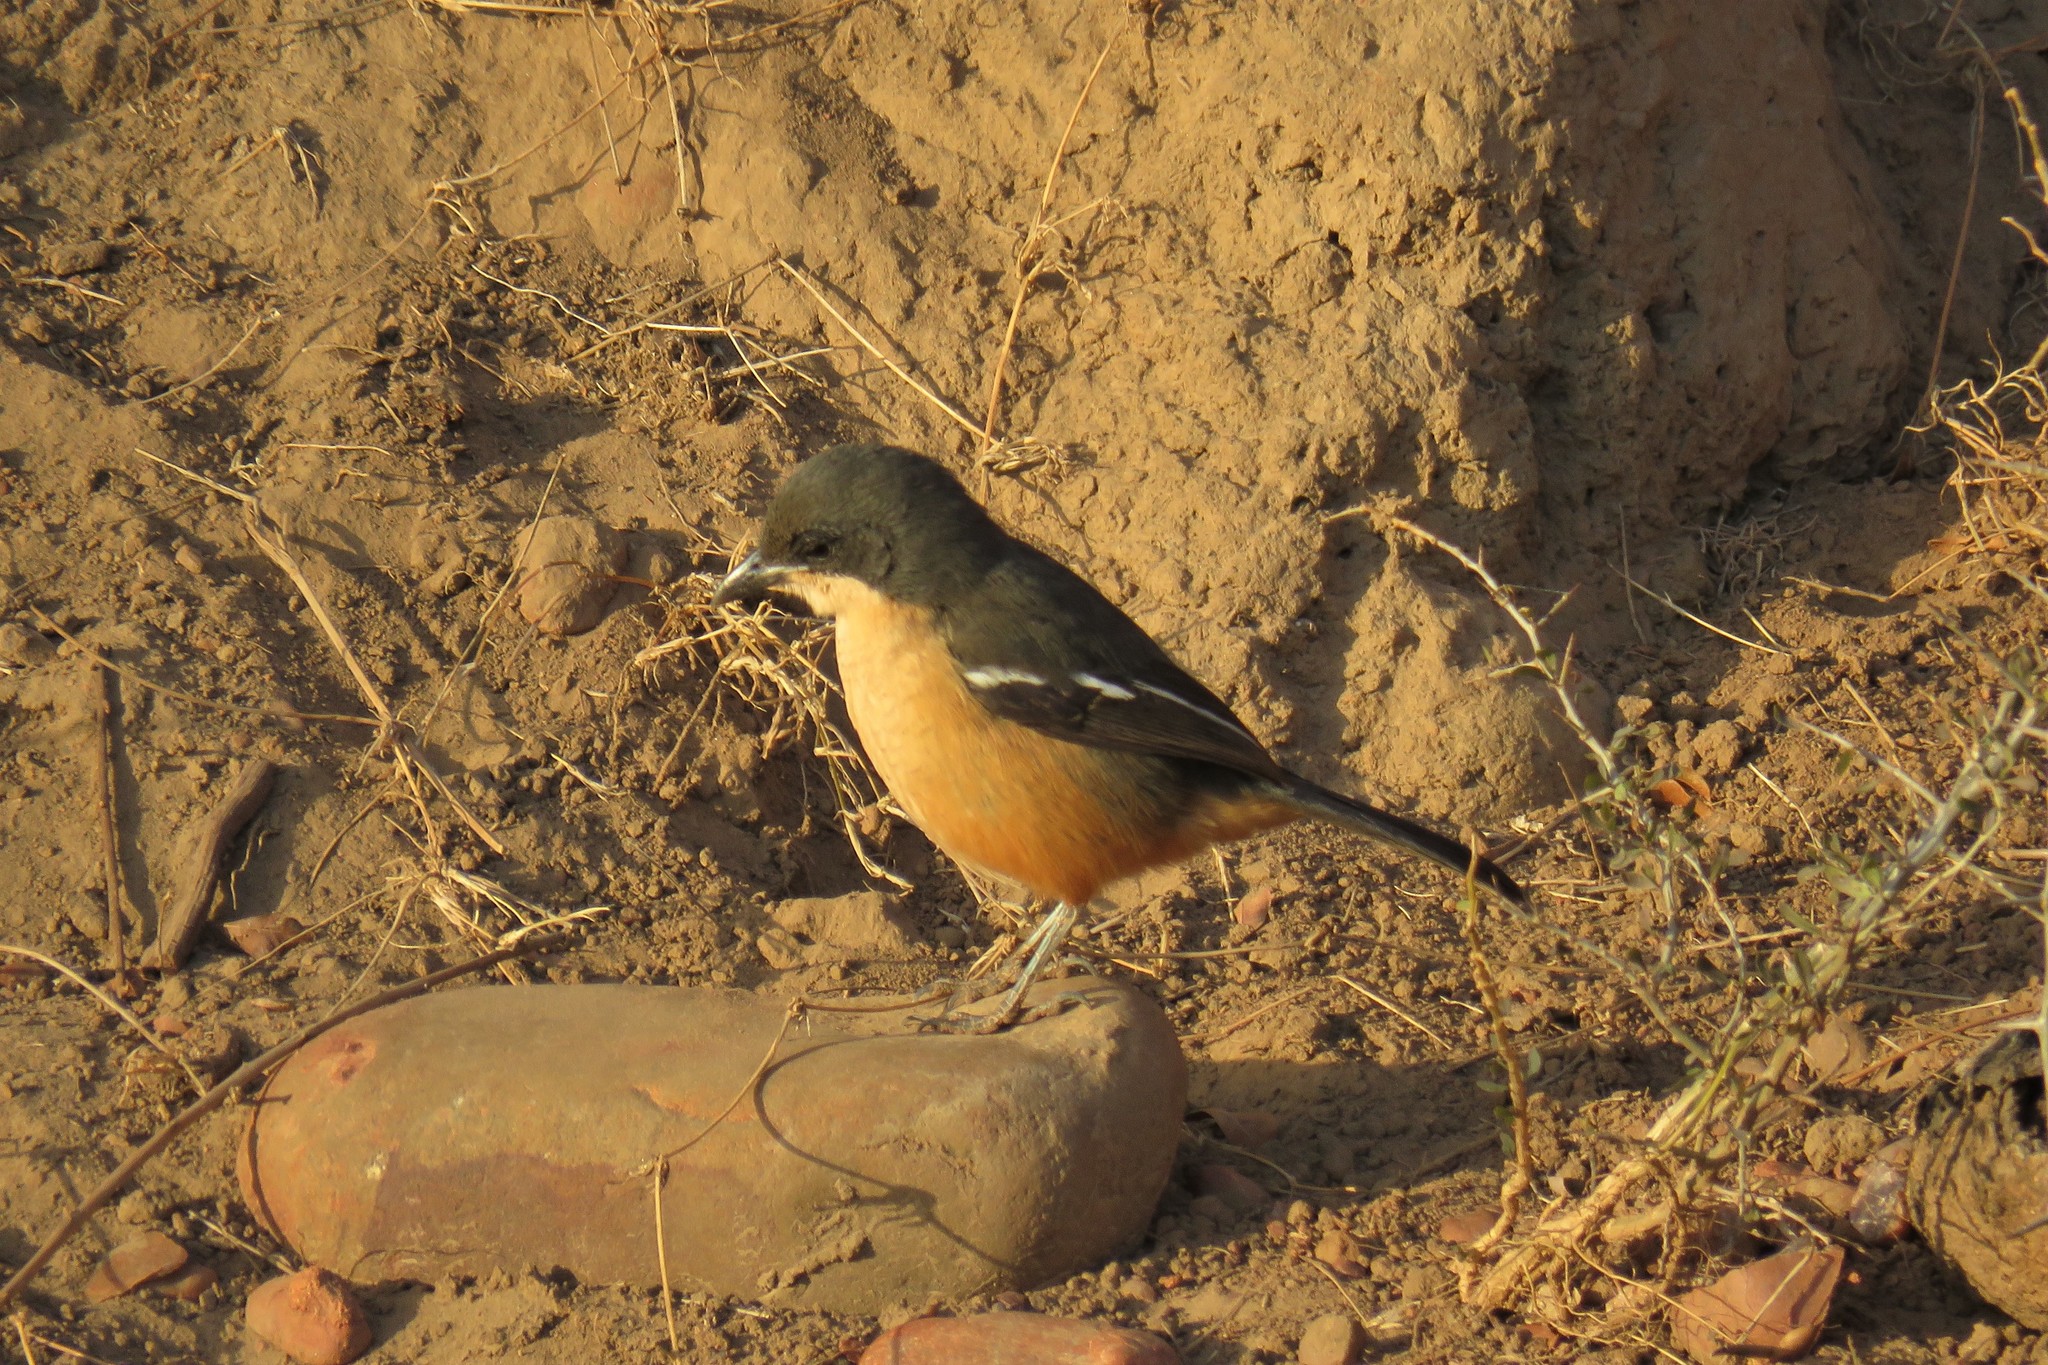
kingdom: Animalia
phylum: Chordata
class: Aves
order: Passeriformes
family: Malaconotidae
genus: Laniarius
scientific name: Laniarius ferrugineus
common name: Southern boubou
